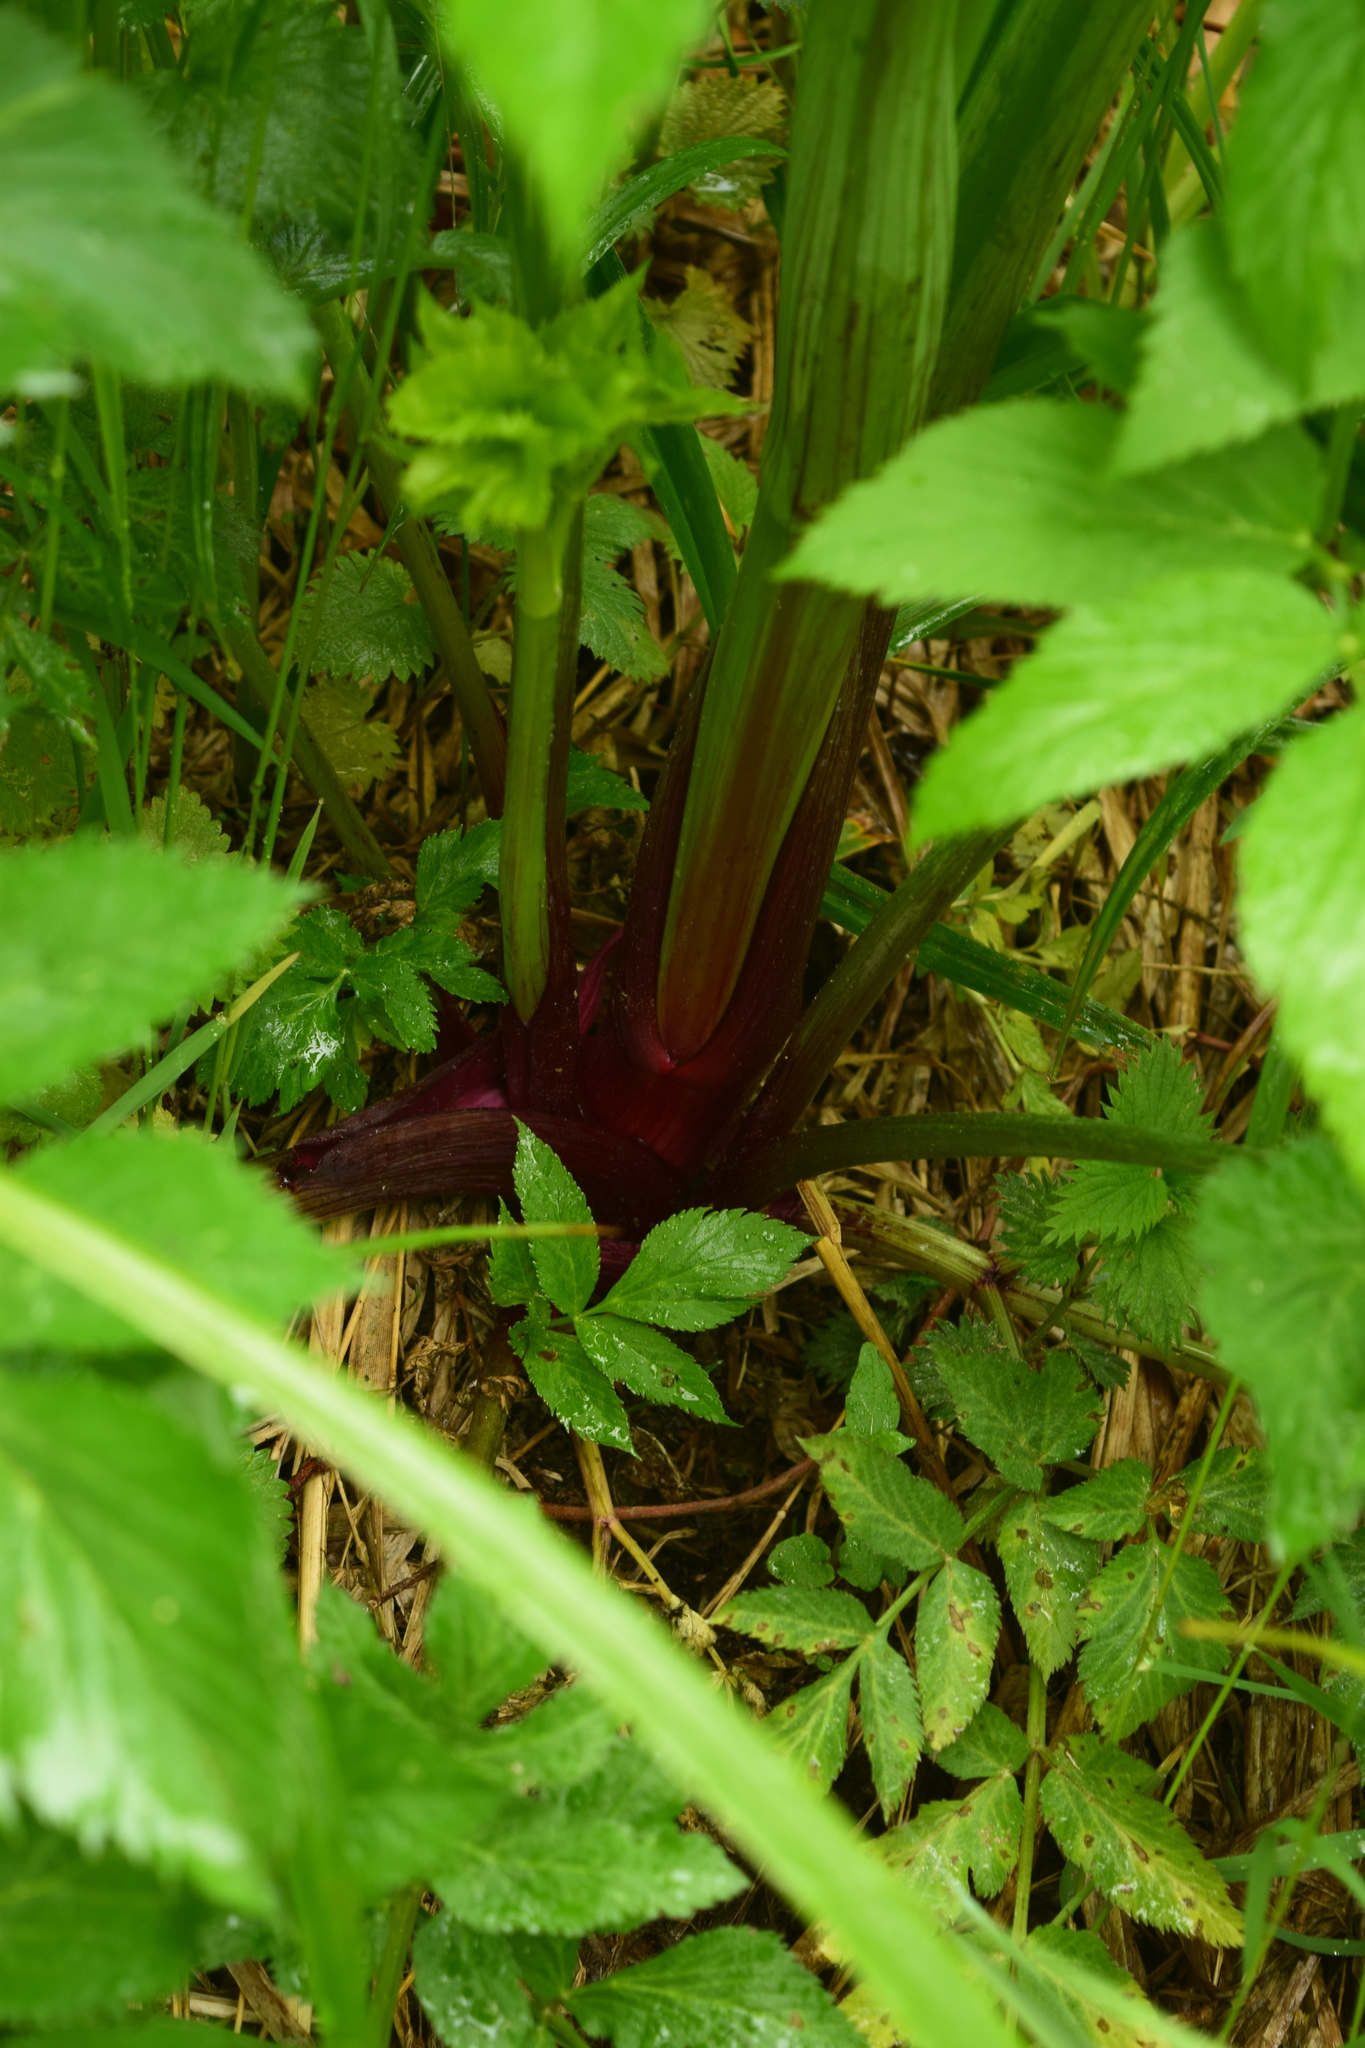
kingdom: Plantae
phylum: Tracheophyta
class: Magnoliopsida
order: Apiales
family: Apiaceae
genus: Angelica
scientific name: Angelica archangelica
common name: Garden angelica
